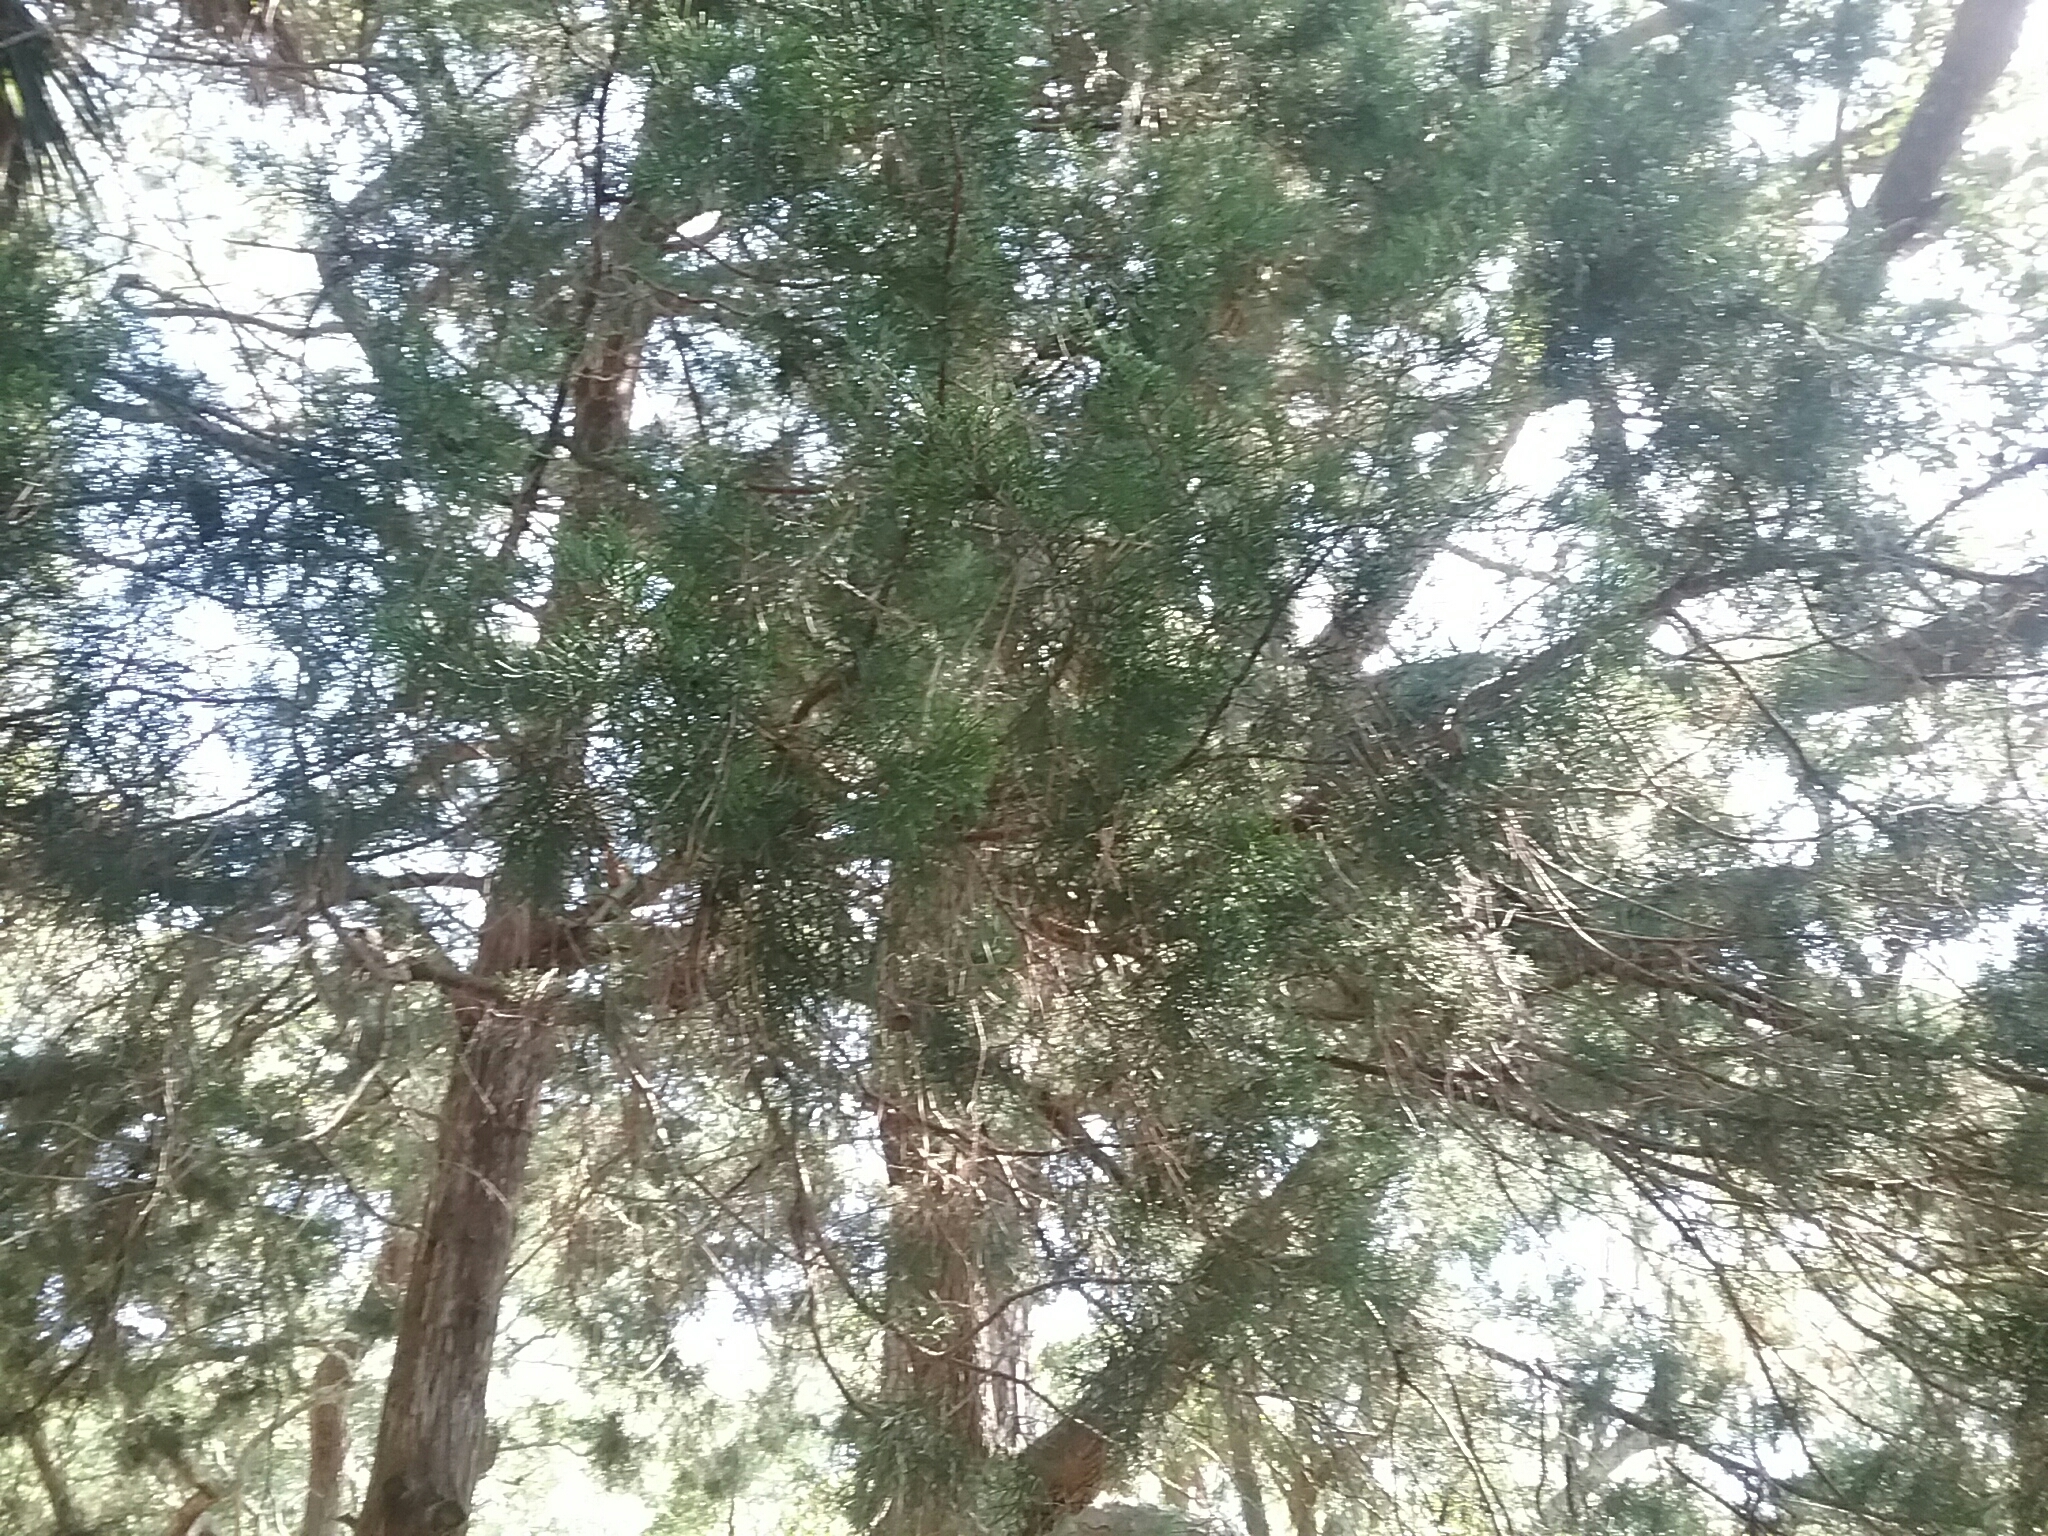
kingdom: Plantae
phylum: Tracheophyta
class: Pinopsida
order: Pinales
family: Cupressaceae
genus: Juniperus
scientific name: Juniperus virginiana
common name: Red juniper
